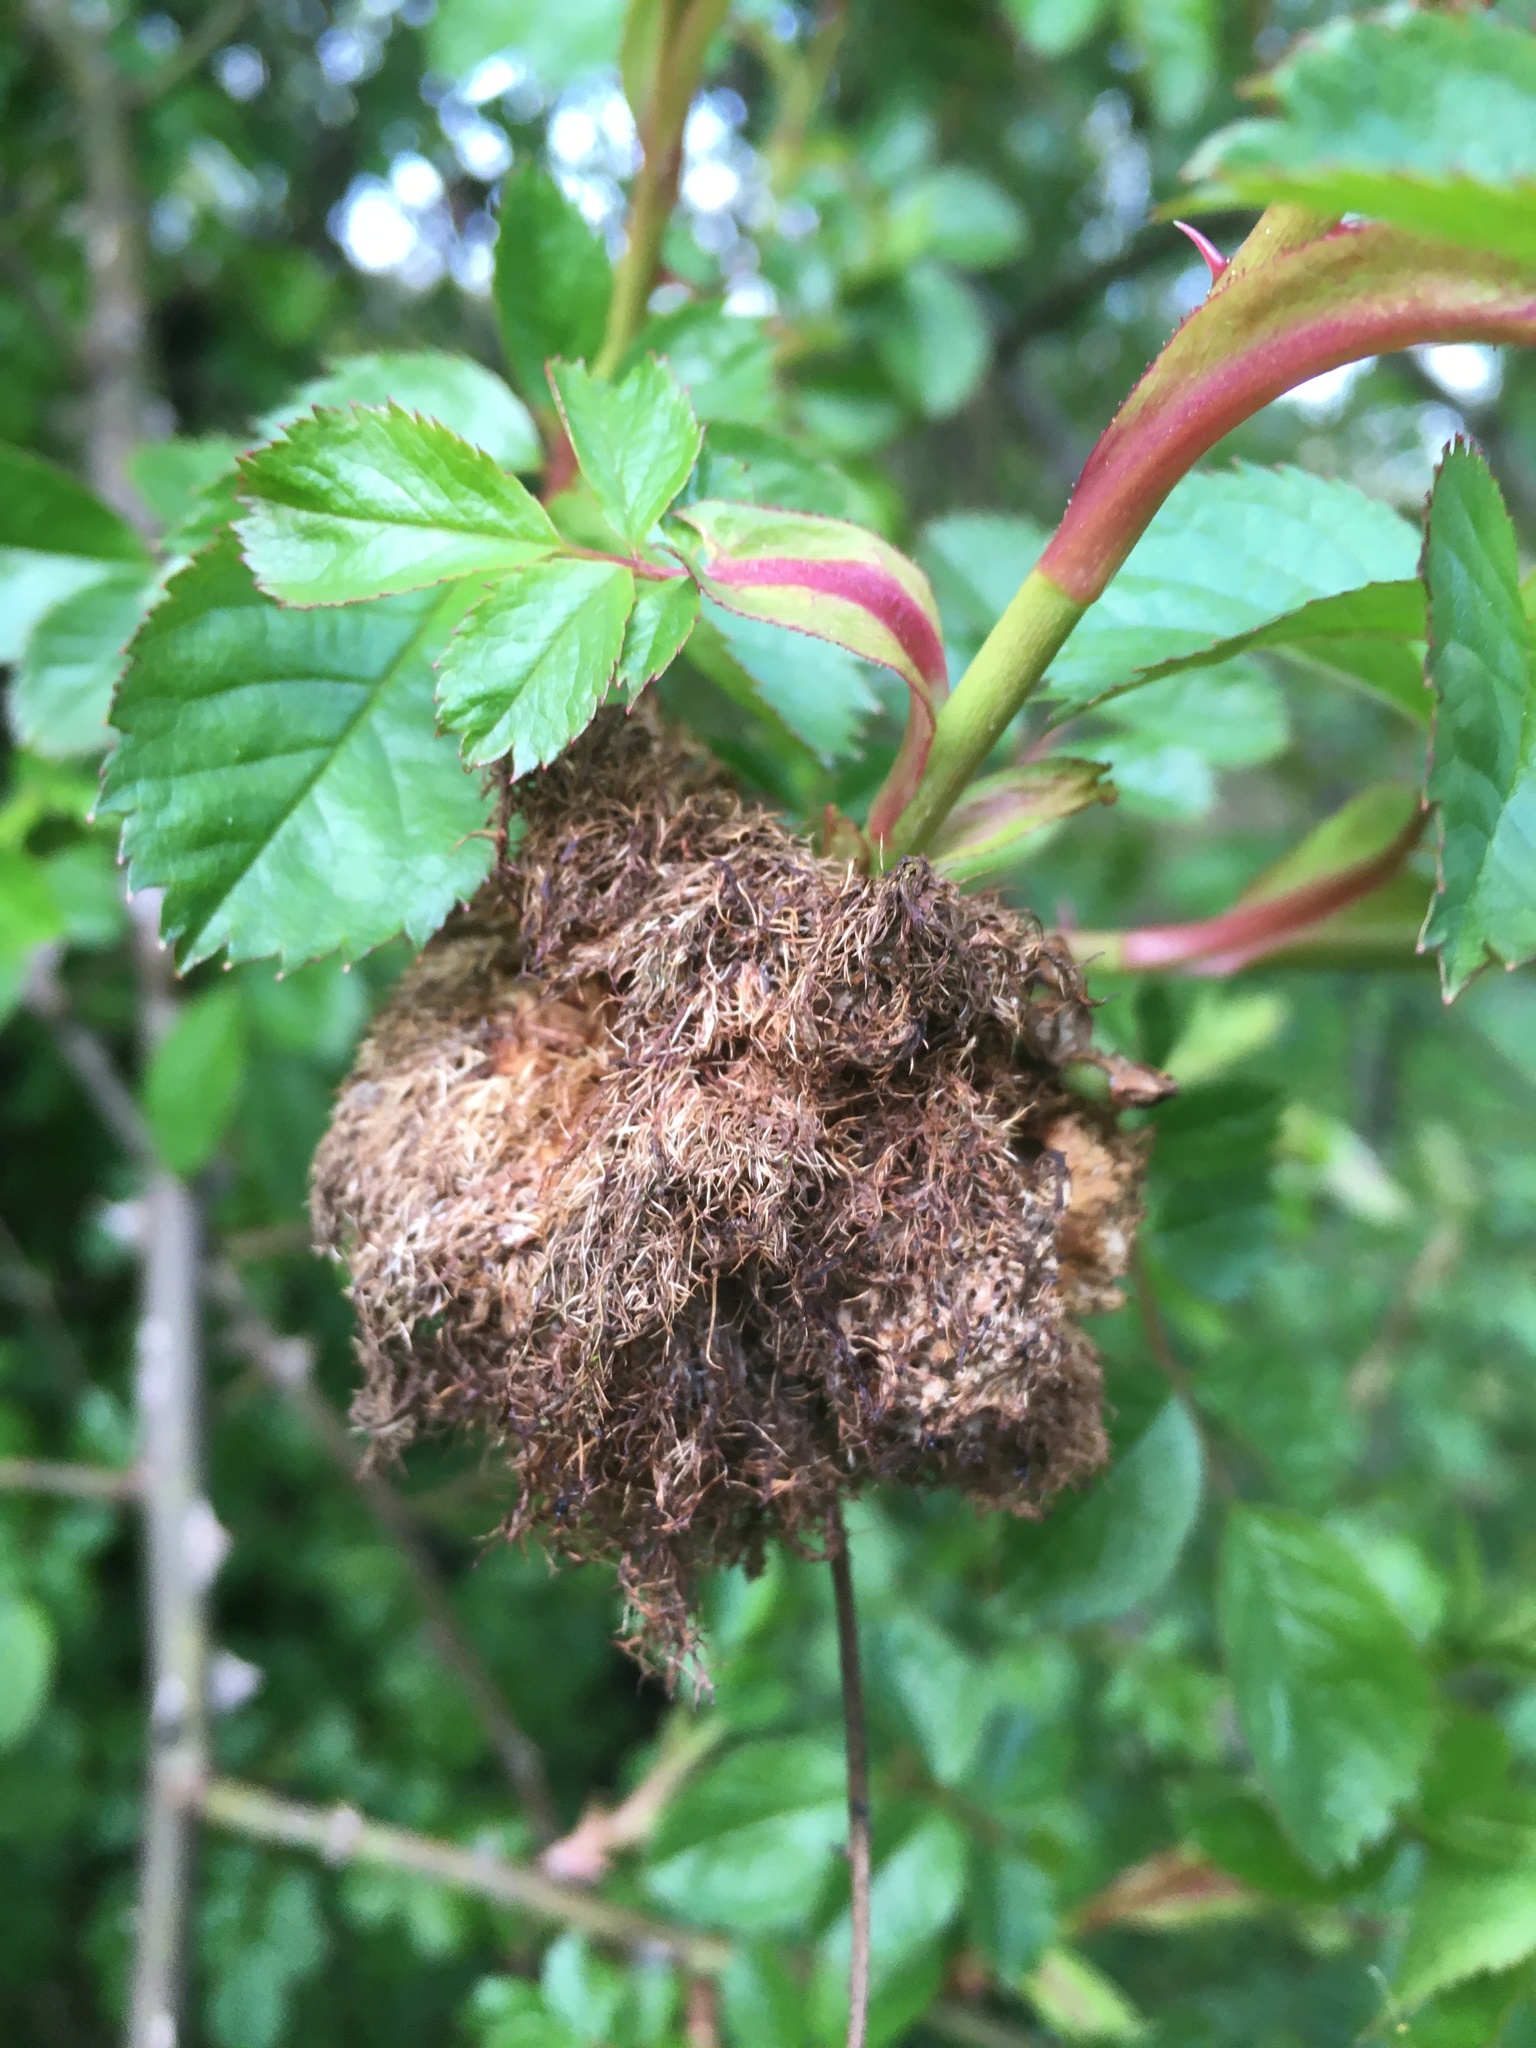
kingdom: Animalia
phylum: Arthropoda
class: Insecta
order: Hymenoptera
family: Cynipidae
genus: Diplolepis
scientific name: Diplolepis rosae
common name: Bedeguar gall
